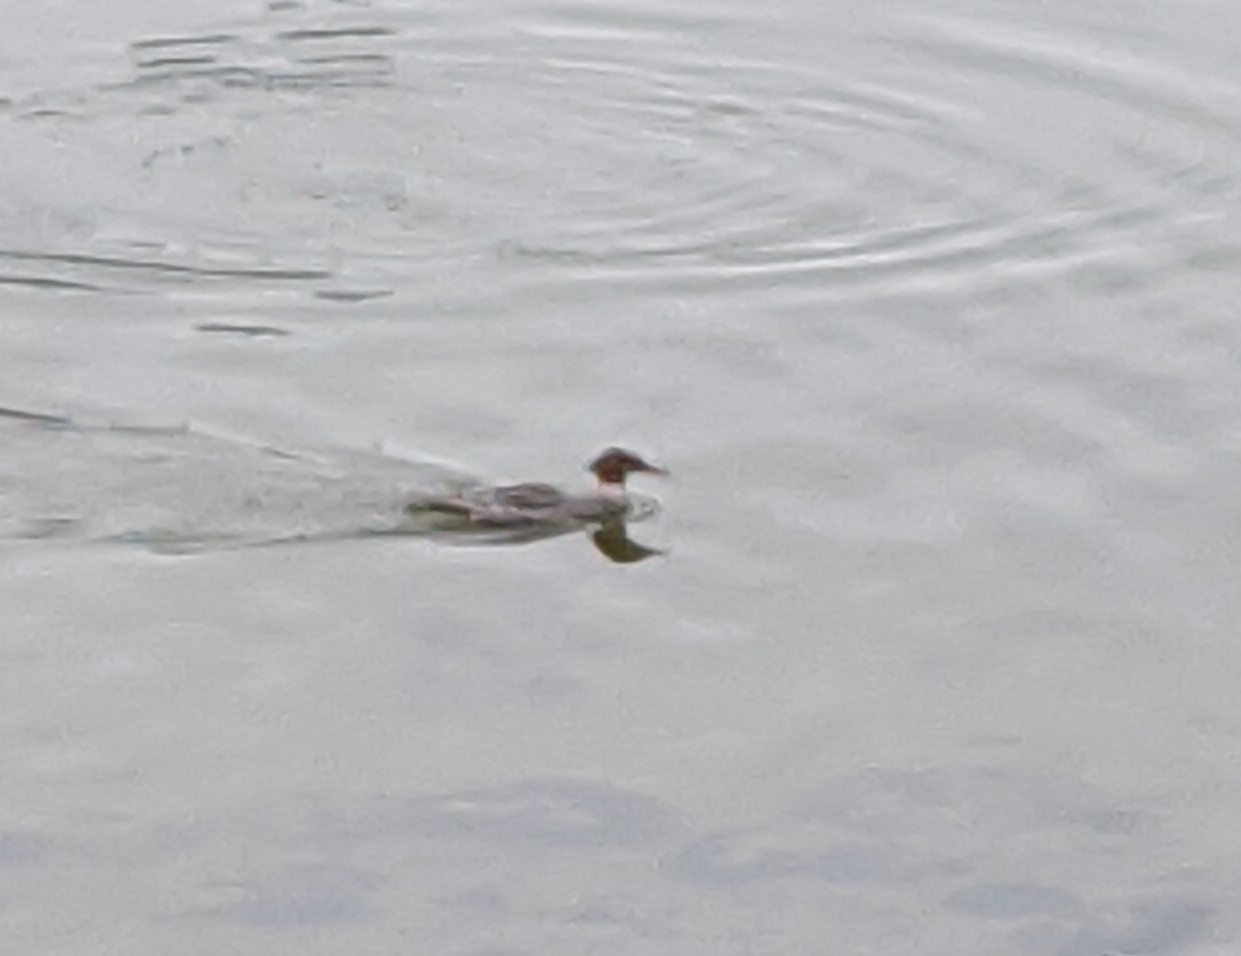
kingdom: Animalia
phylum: Chordata
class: Aves
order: Anseriformes
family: Anatidae
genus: Mergus
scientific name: Mergus merganser
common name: Common merganser
